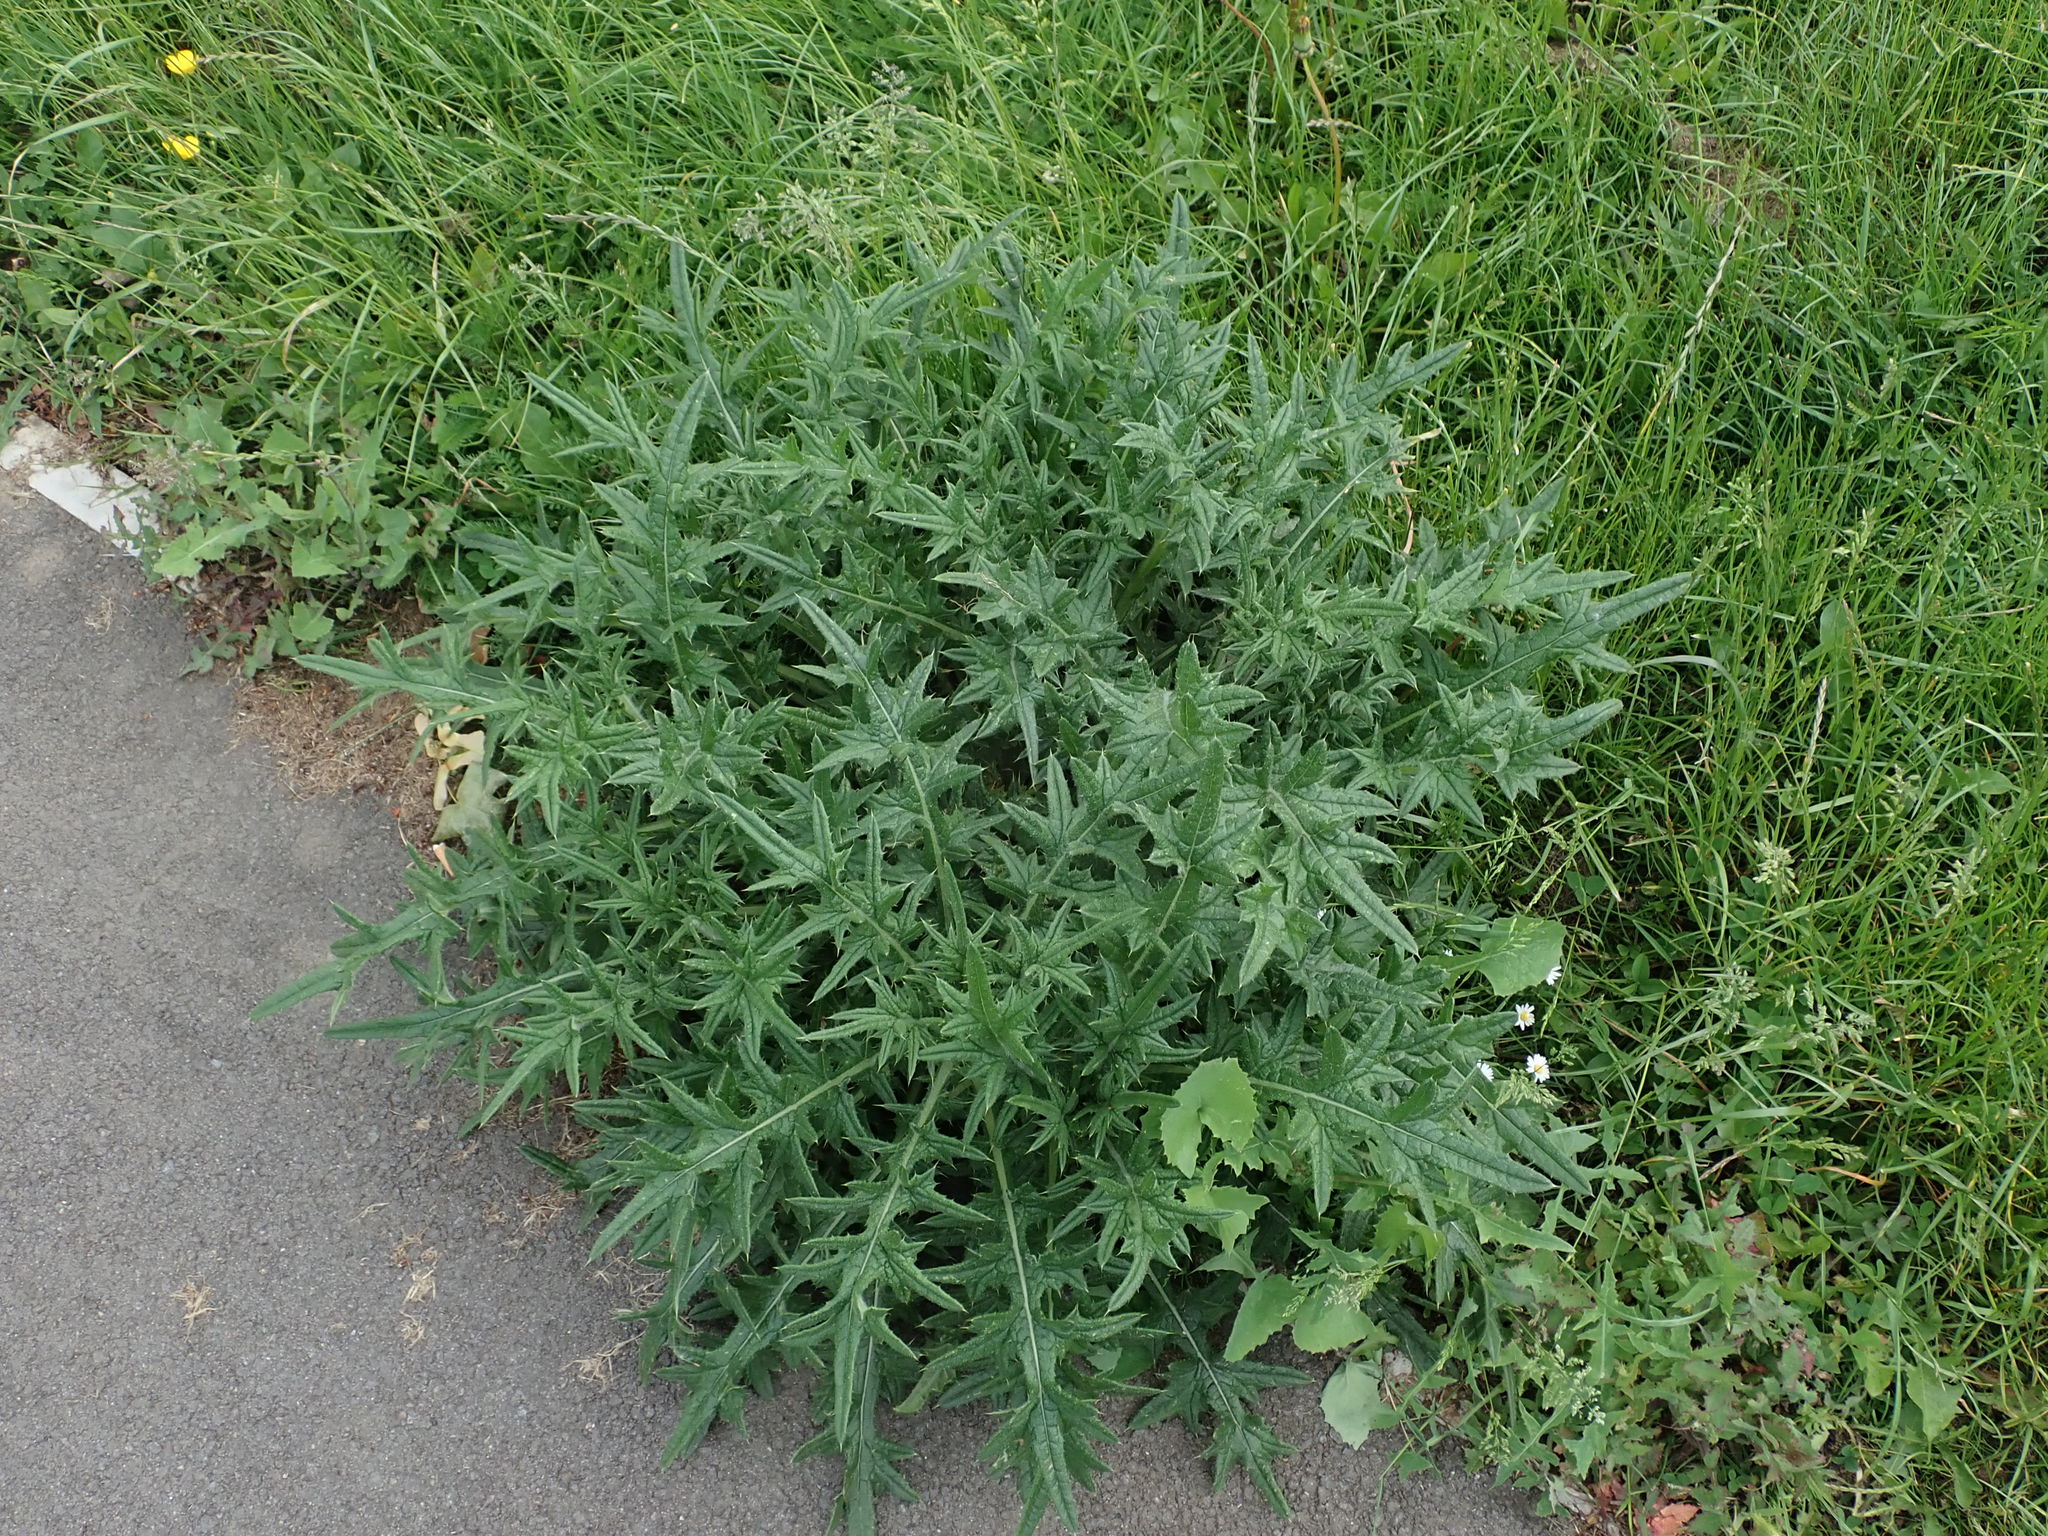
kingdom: Plantae
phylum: Tracheophyta
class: Magnoliopsida
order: Asterales
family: Asteraceae
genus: Cirsium
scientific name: Cirsium vulgare
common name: Bull thistle
